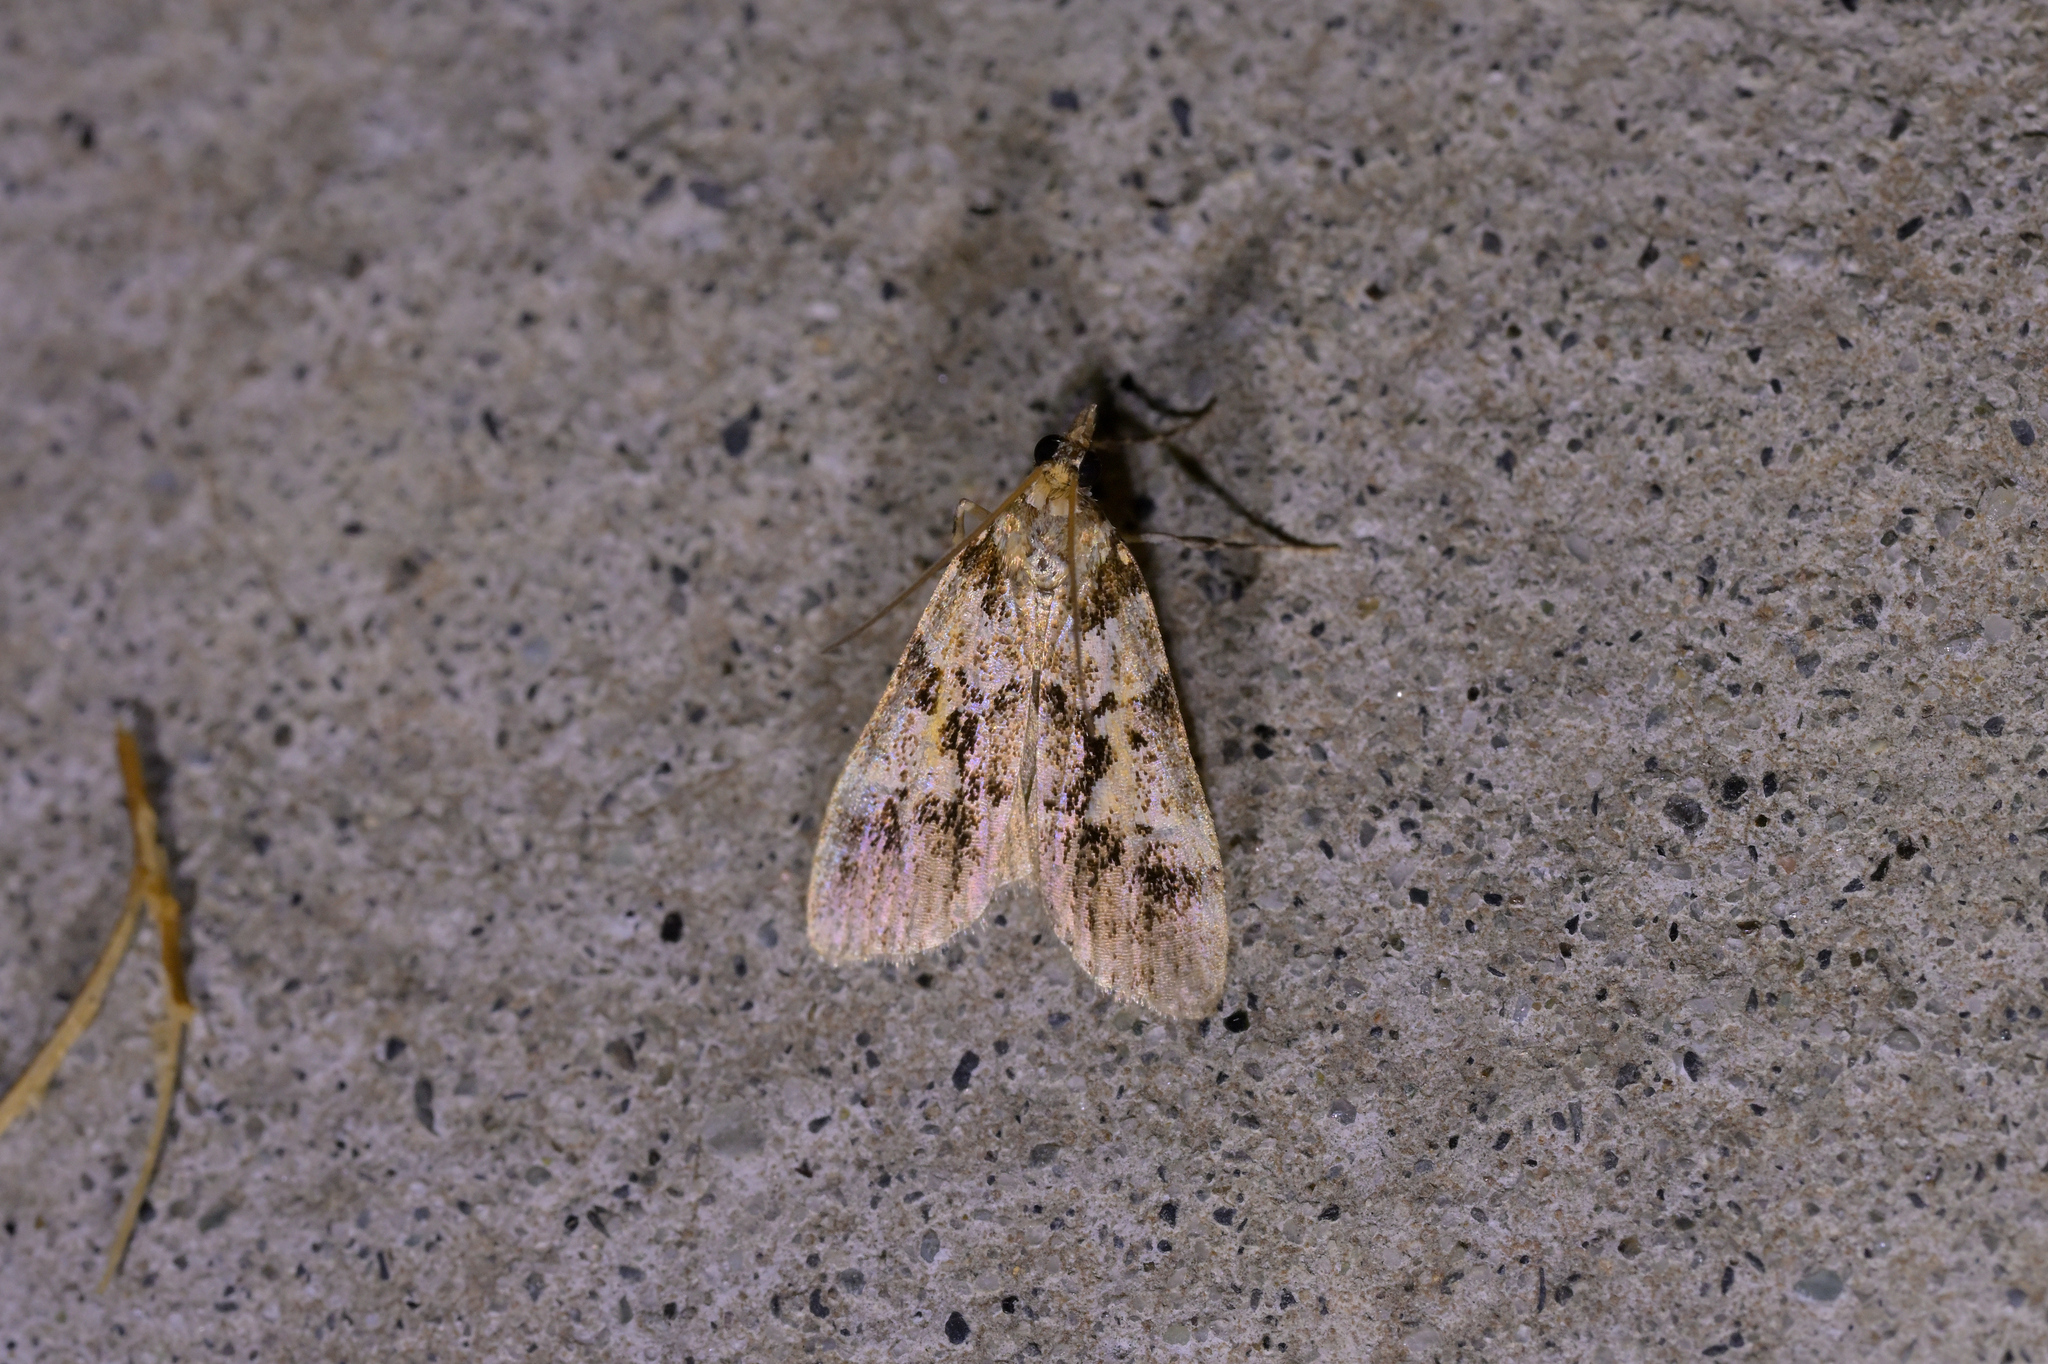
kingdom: Animalia
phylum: Arthropoda
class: Insecta
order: Lepidoptera
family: Crambidae
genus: Eudonia
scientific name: Eudonia characta
